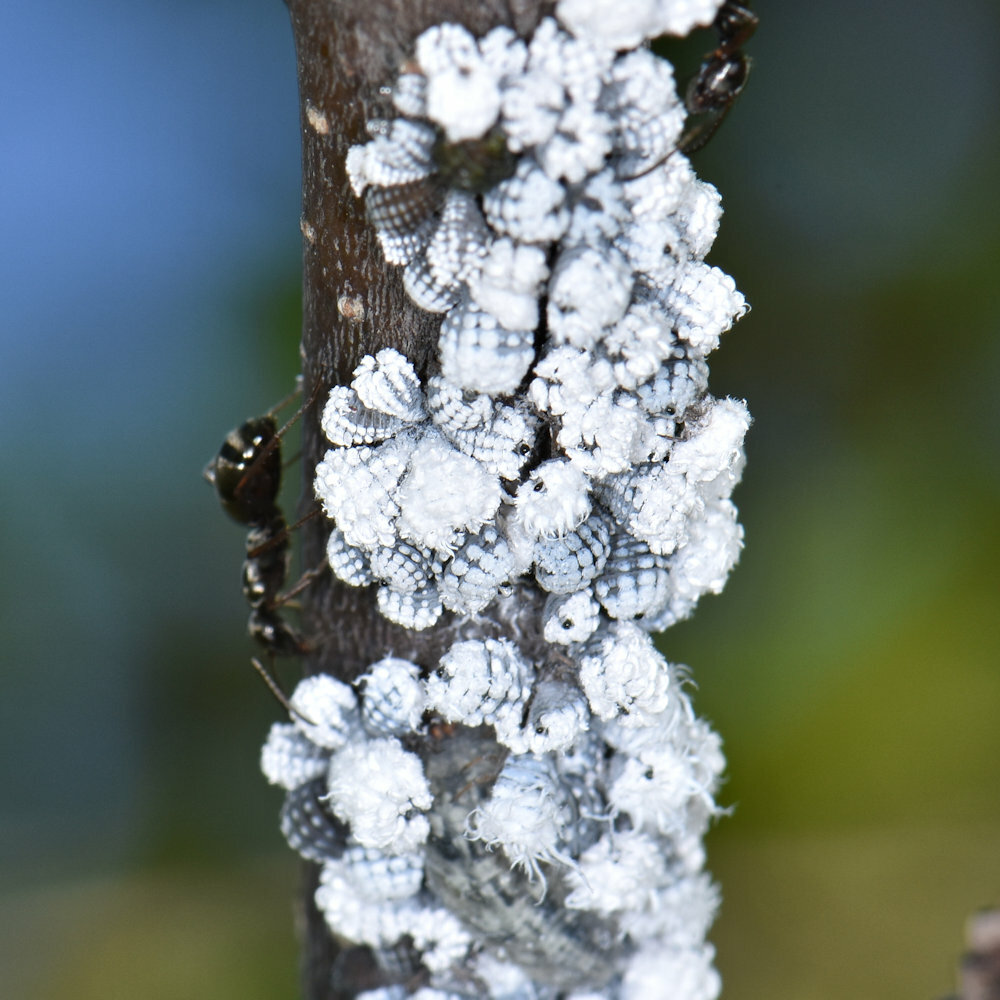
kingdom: Animalia
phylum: Arthropoda
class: Insecta
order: Hemiptera
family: Aphididae
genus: Prociphilus
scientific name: Prociphilus tessellatus
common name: Woolly alder aphid
